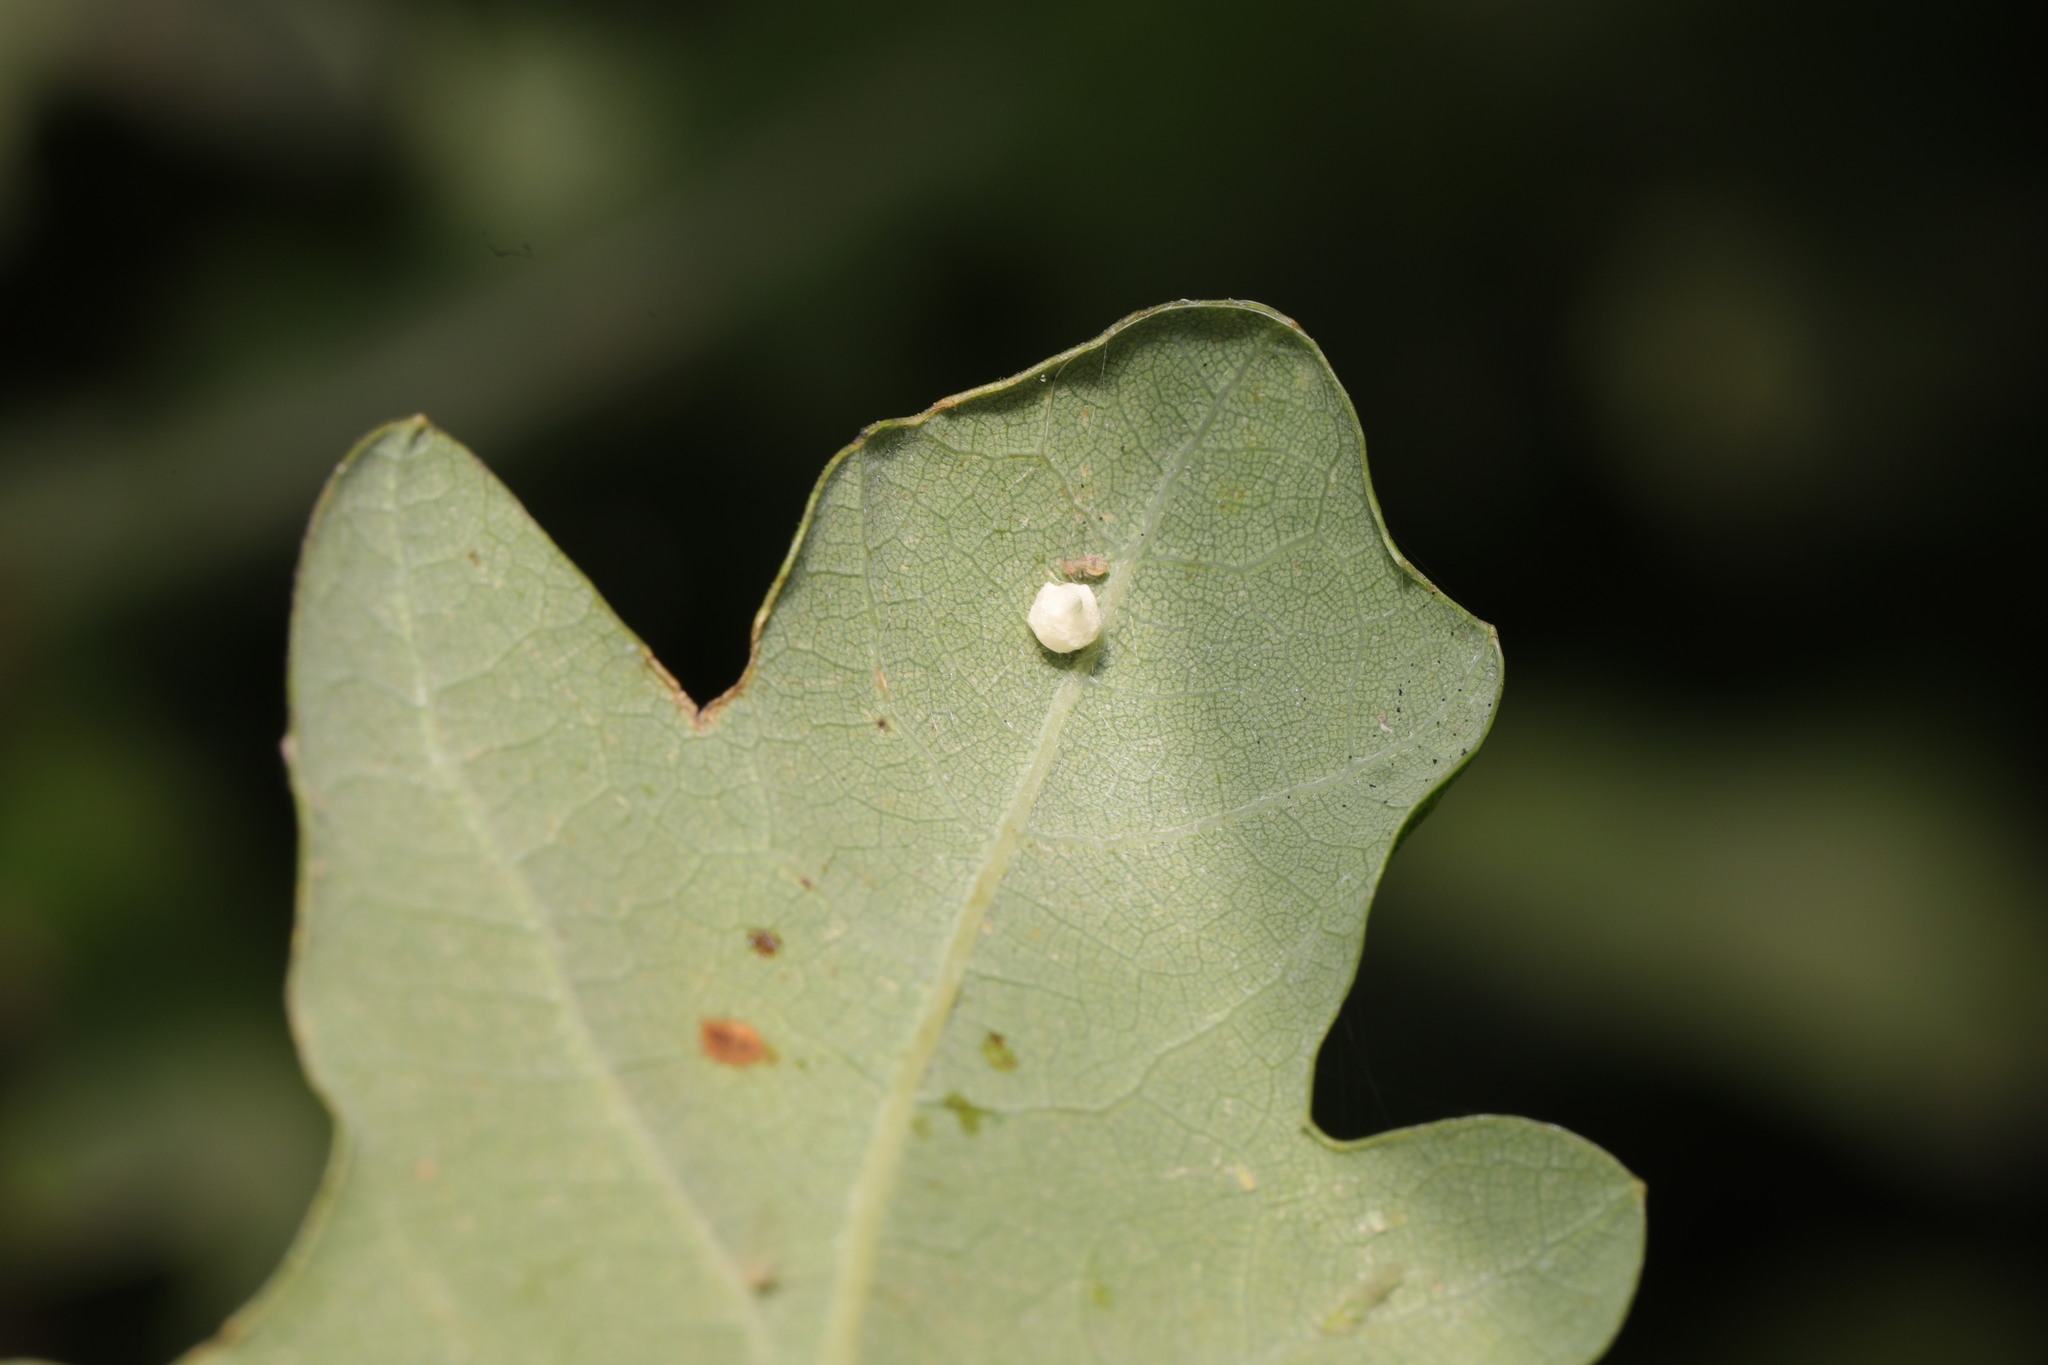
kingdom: Animalia
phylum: Arthropoda
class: Arachnida
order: Araneae
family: Theridiidae
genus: Paidiscura
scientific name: Paidiscura pallens
